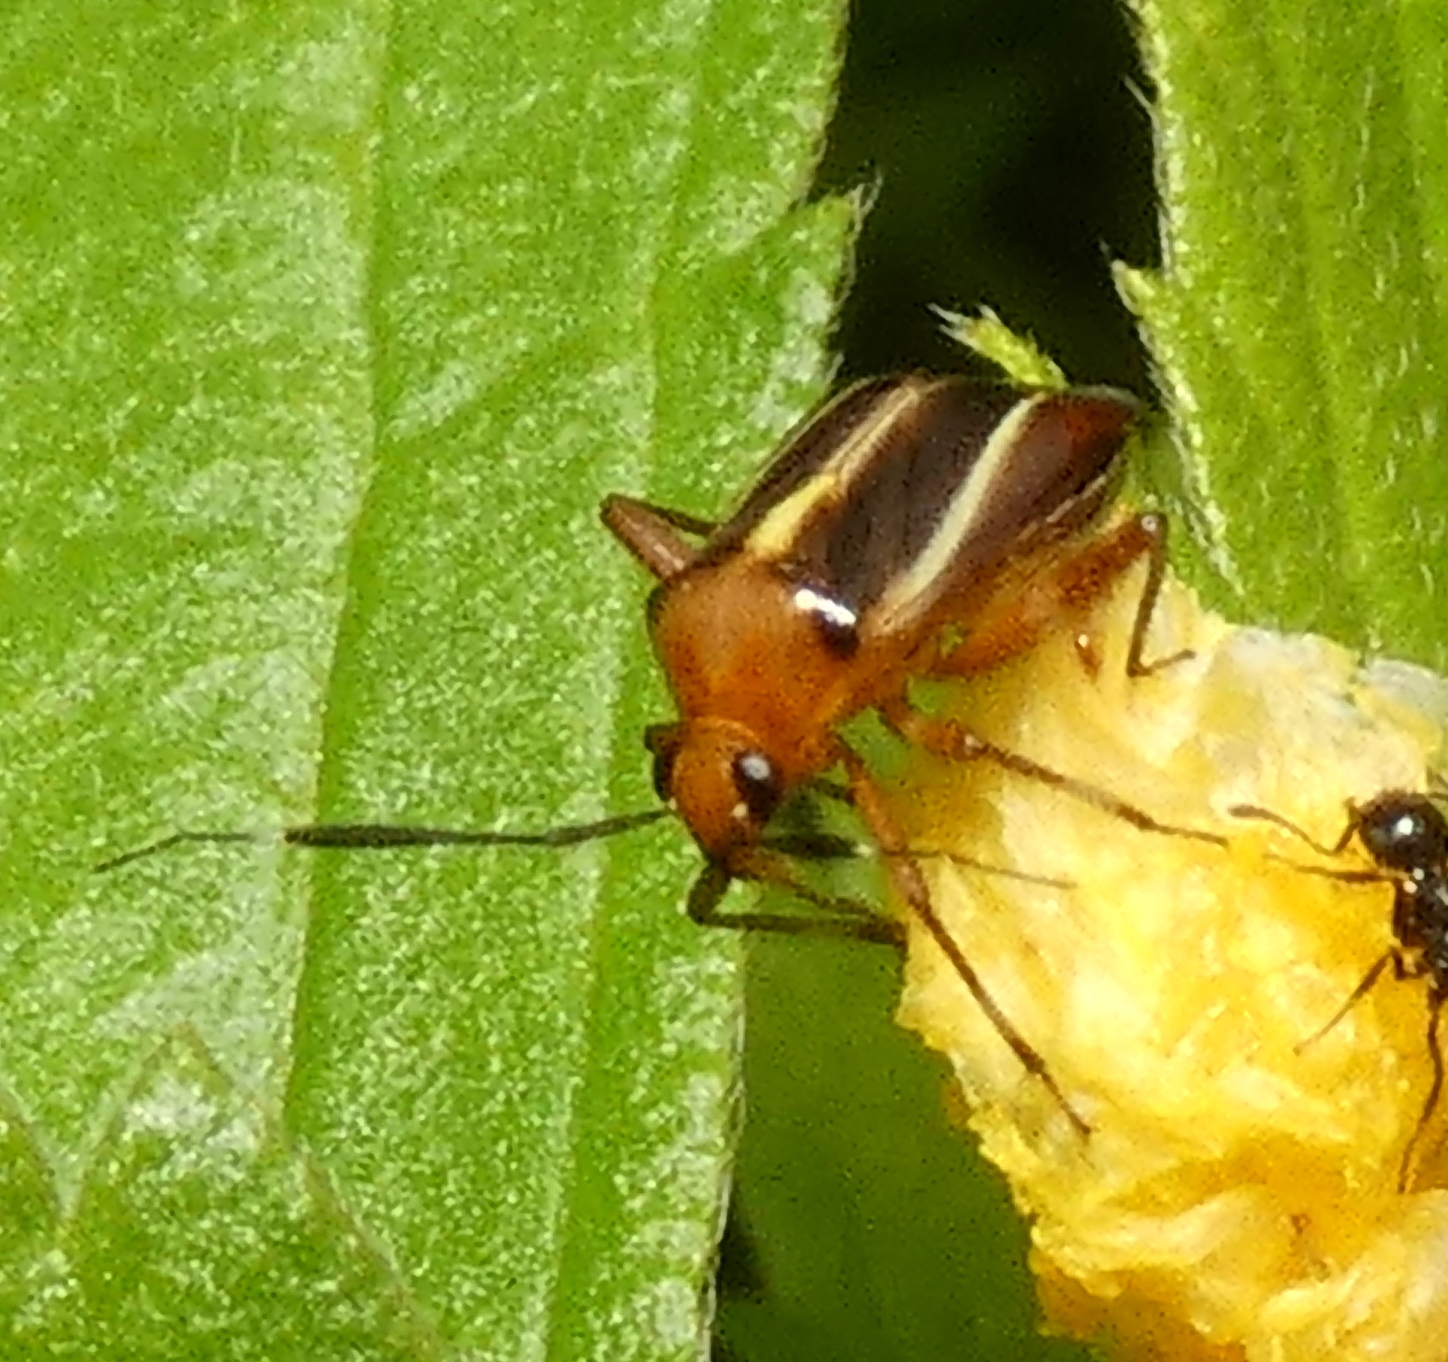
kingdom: Animalia
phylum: Arthropoda
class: Insecta
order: Hemiptera
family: Miridae
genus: Horciasinus
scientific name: Horciasinus signoreti
